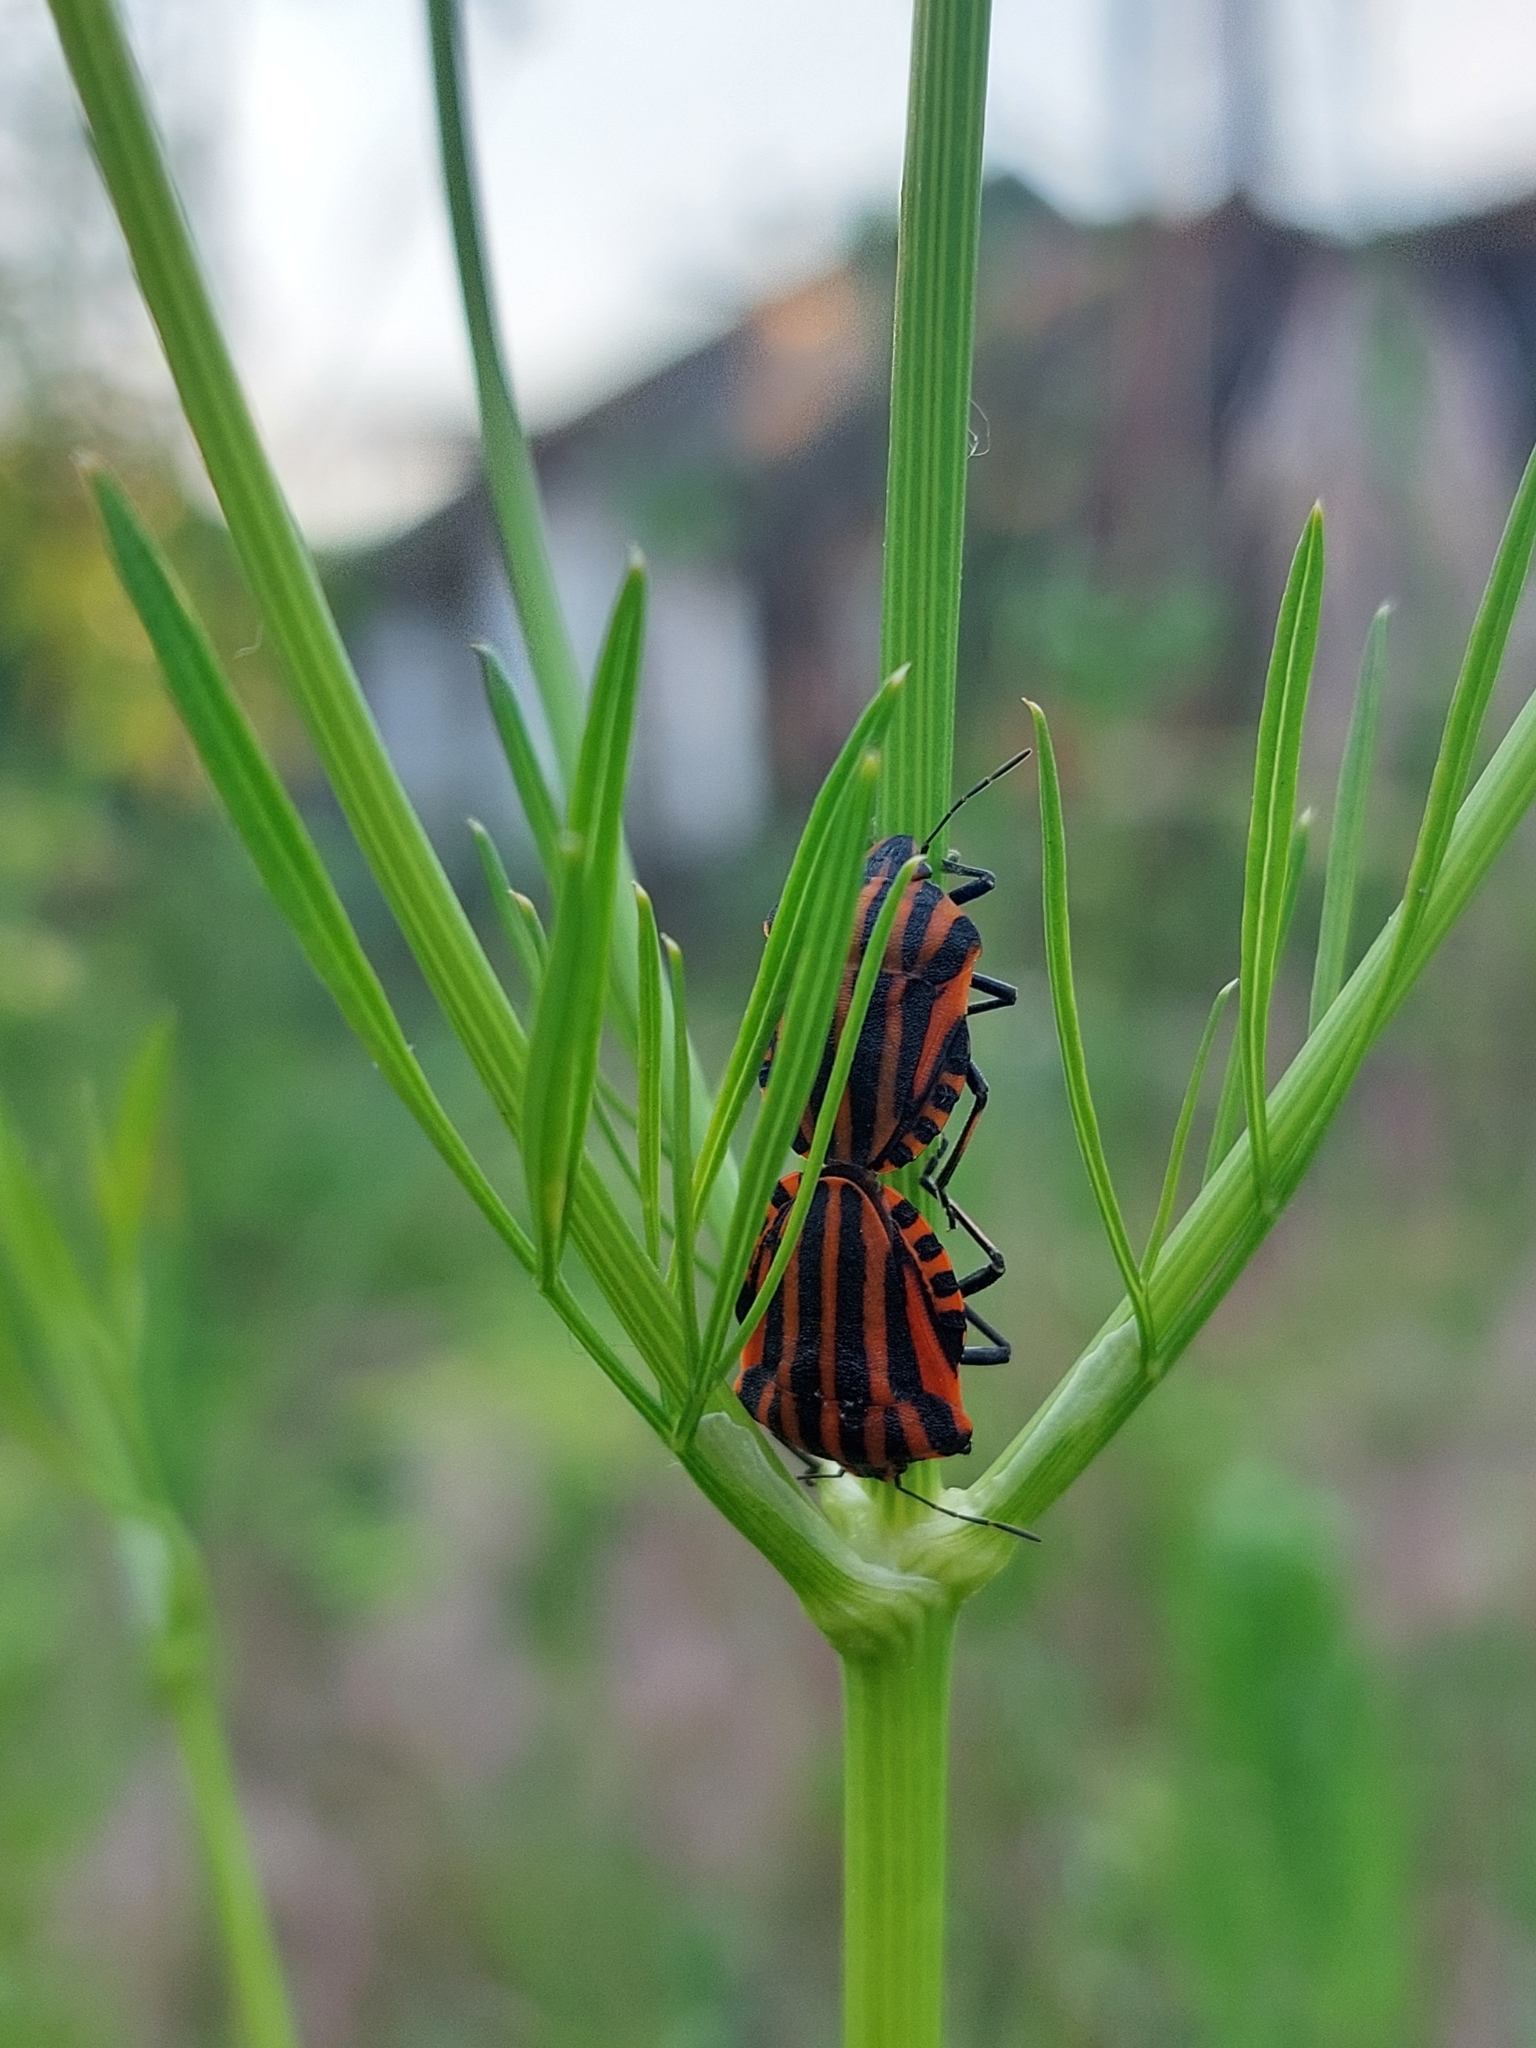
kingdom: Animalia
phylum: Arthropoda
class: Insecta
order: Hemiptera
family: Pentatomidae
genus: Graphosoma
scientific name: Graphosoma italicum
